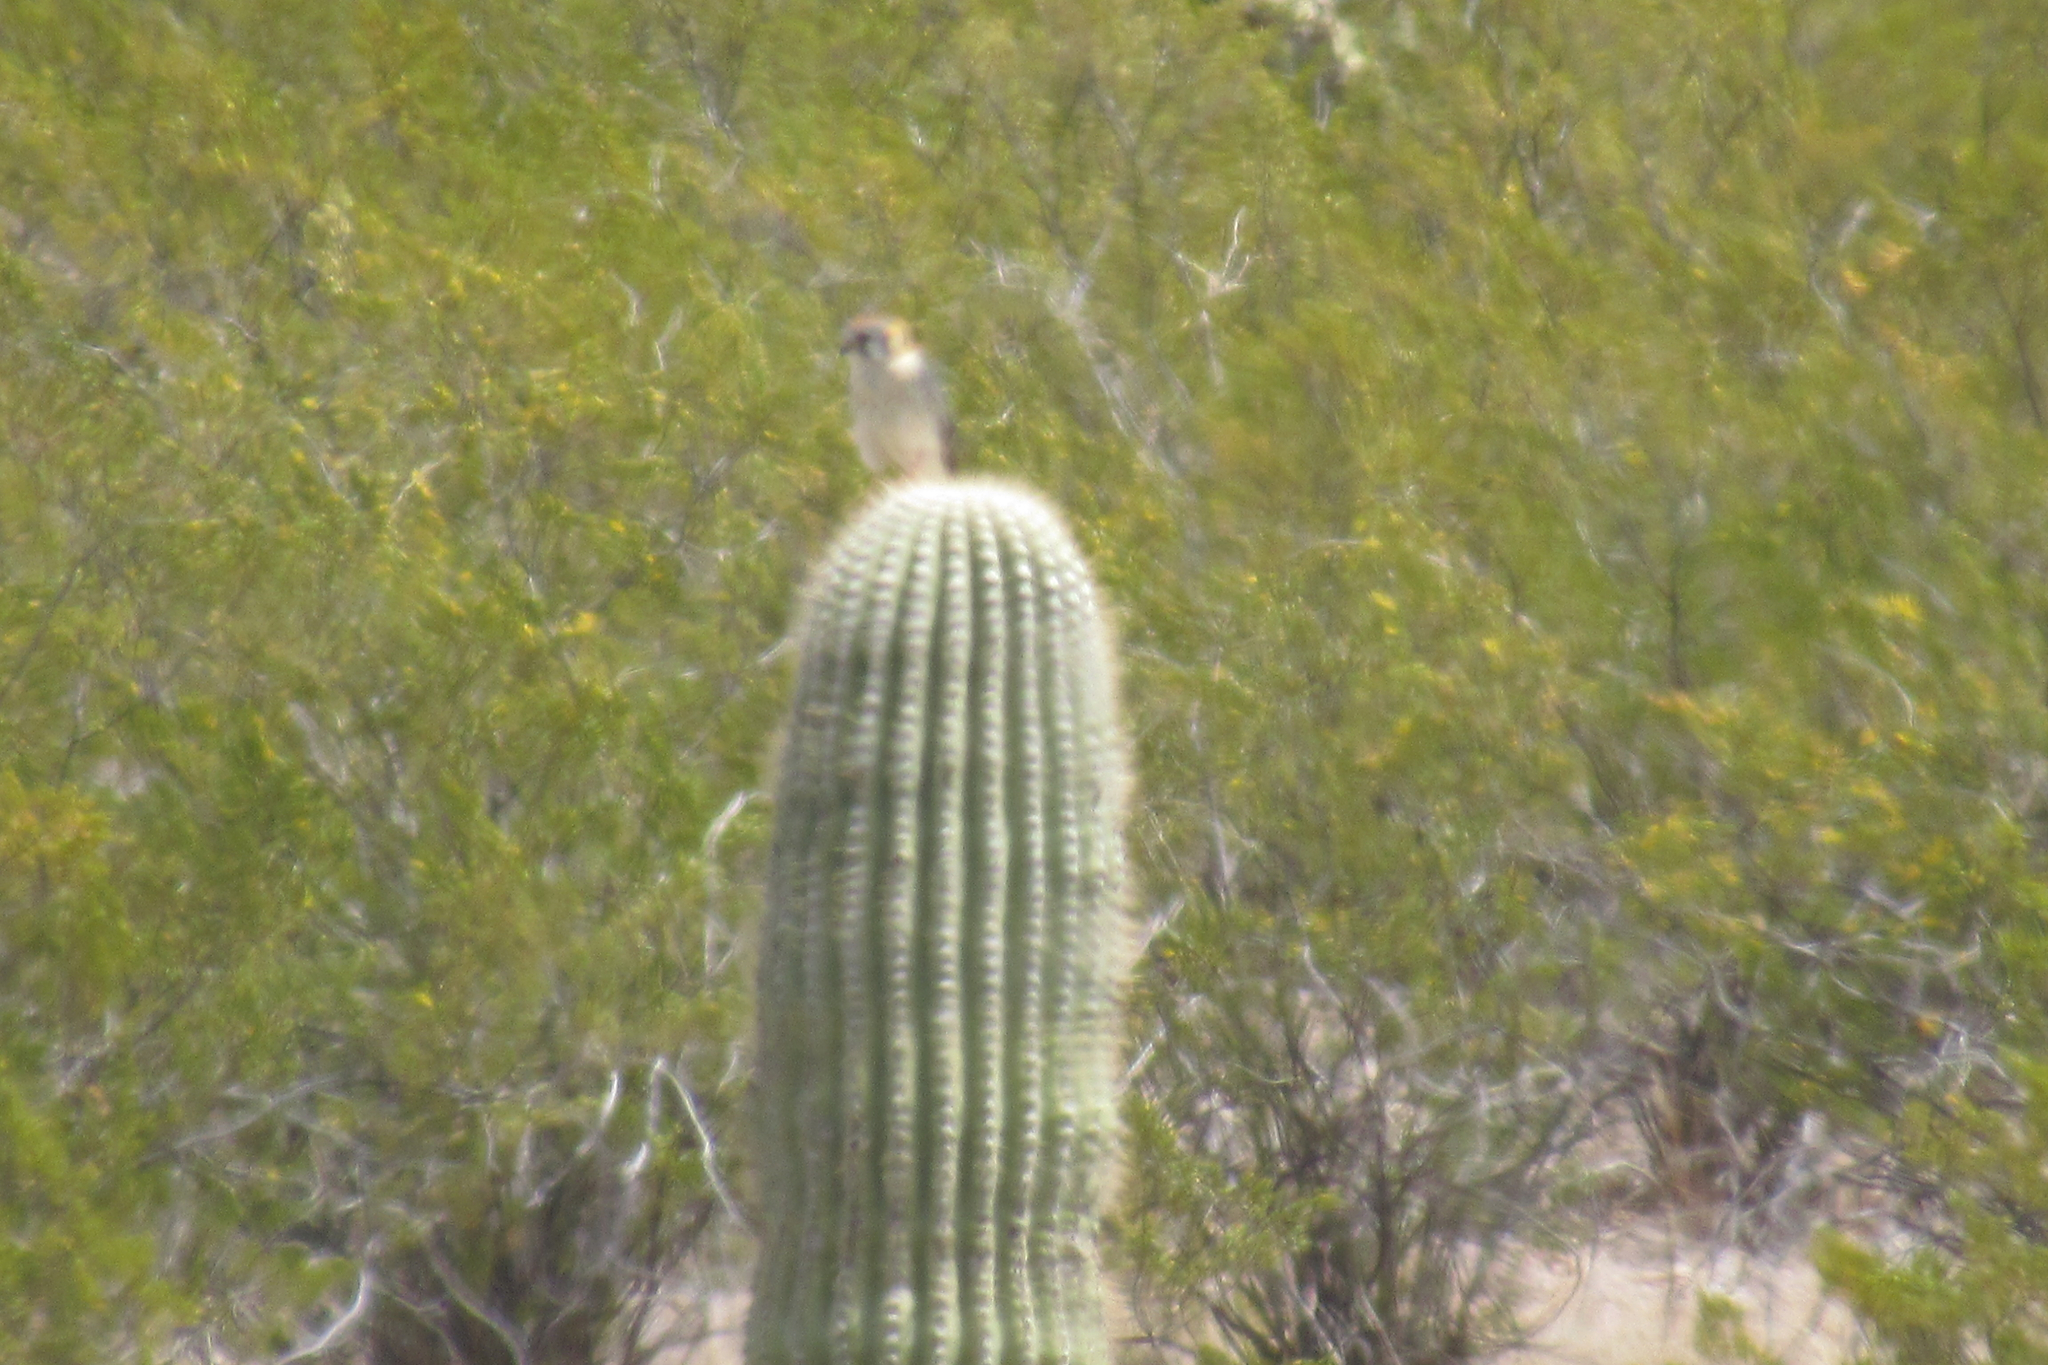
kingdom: Animalia
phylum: Chordata
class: Aves
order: Falconiformes
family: Falconidae
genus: Falco
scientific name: Falco sparverius
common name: American kestrel
